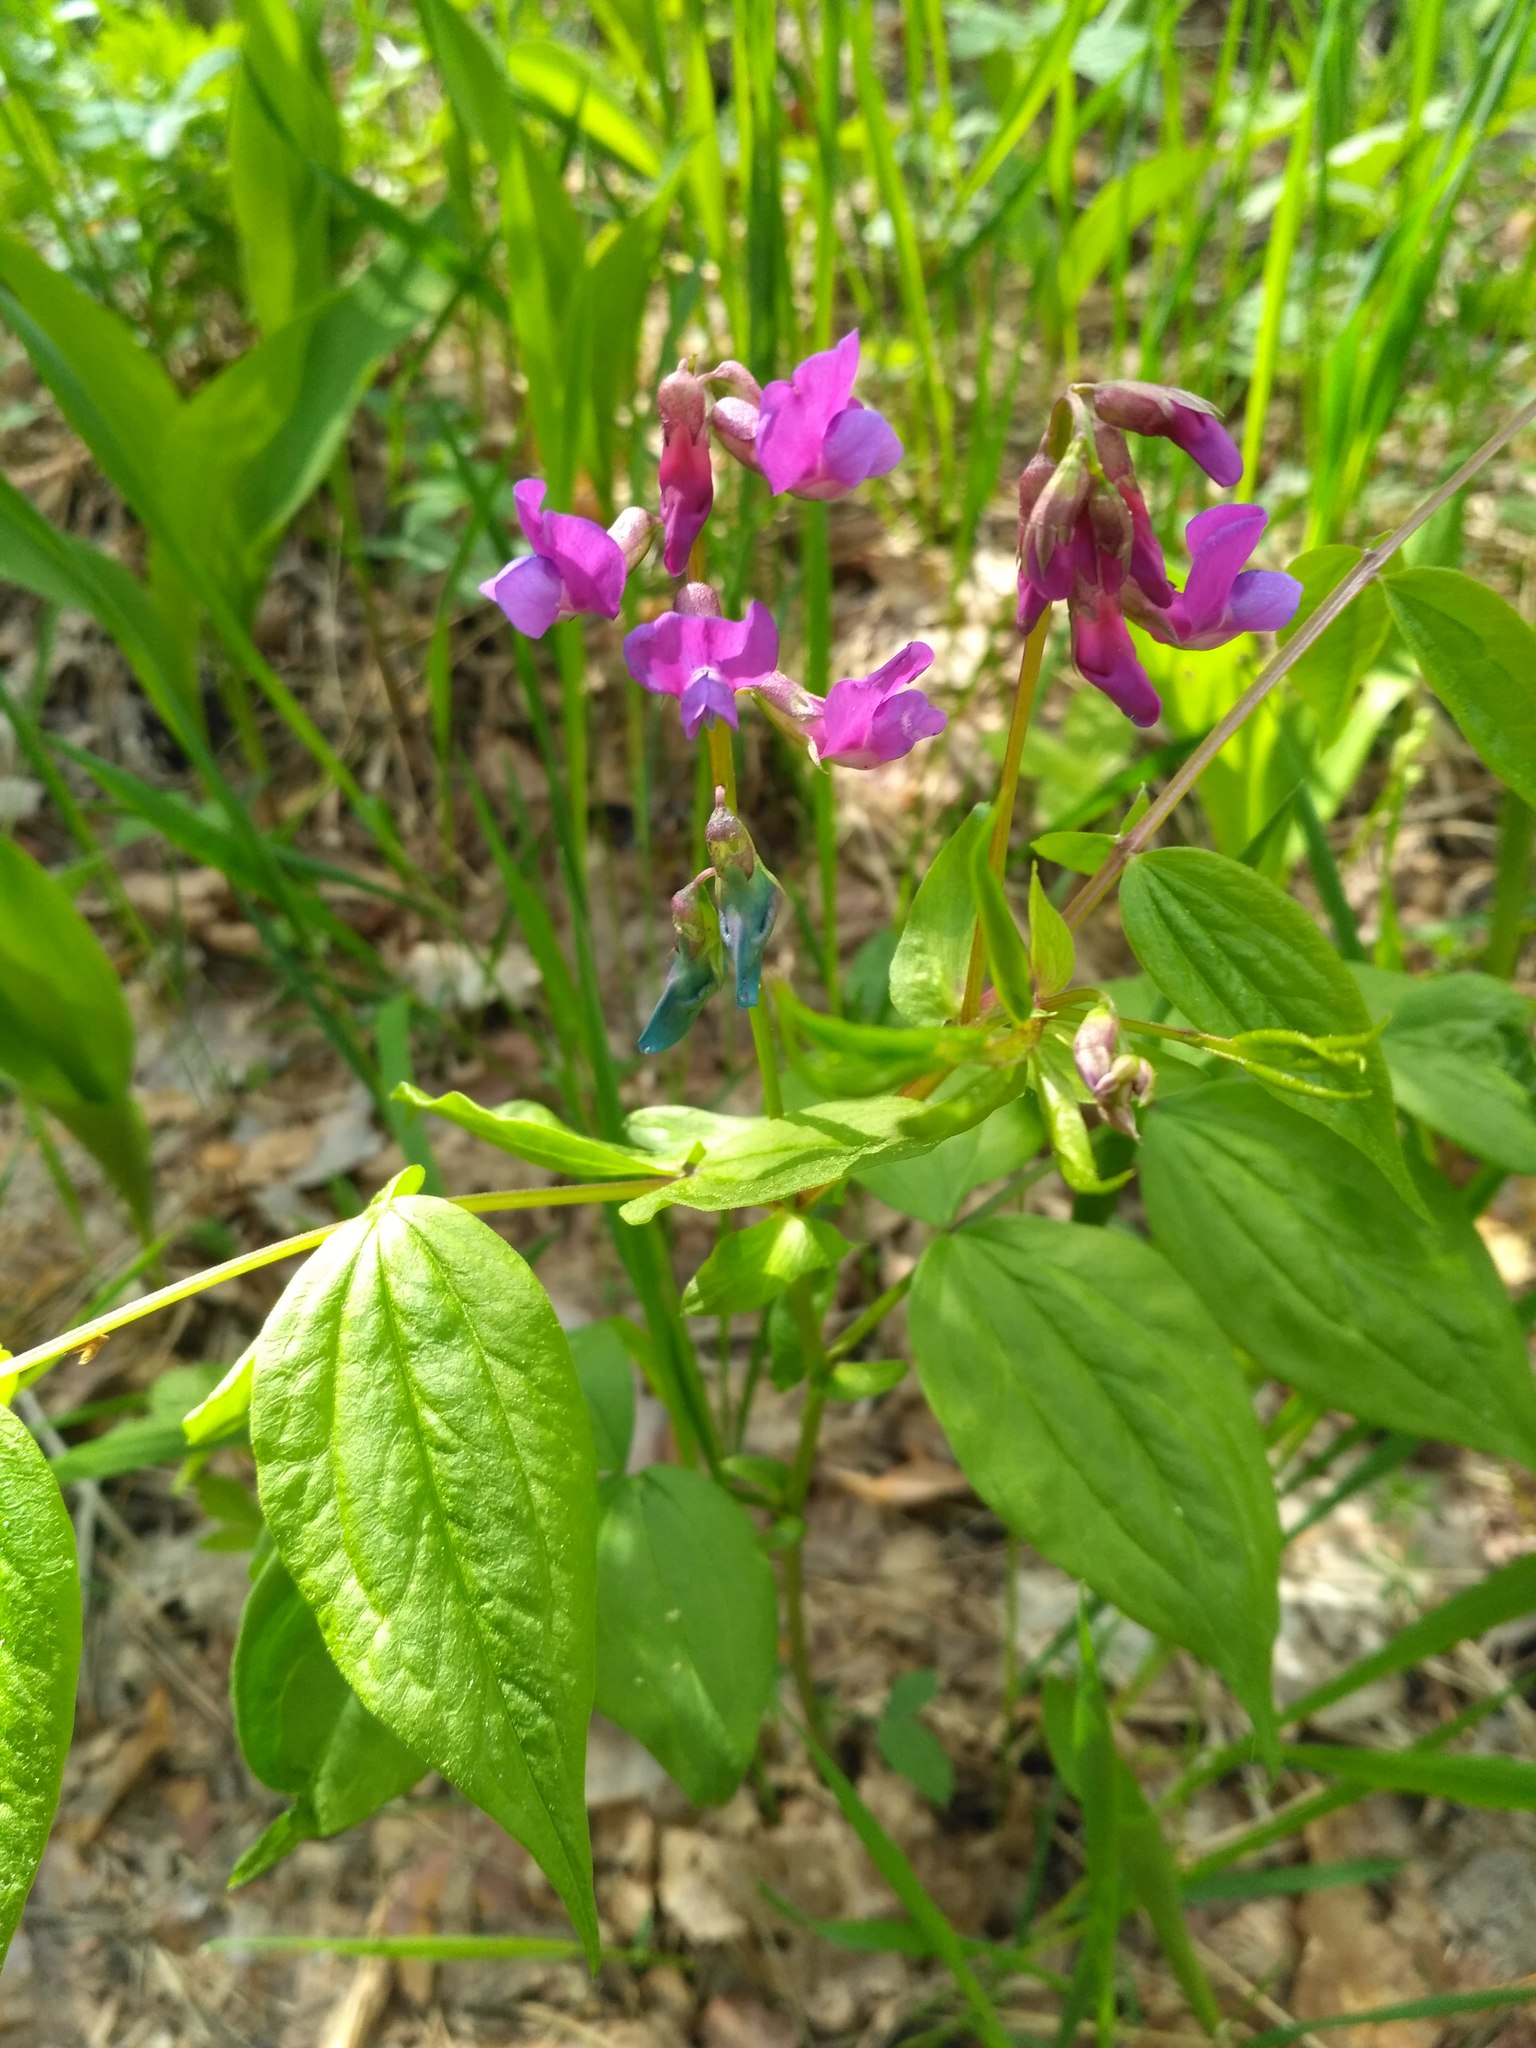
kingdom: Plantae
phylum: Tracheophyta
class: Magnoliopsida
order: Fabales
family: Fabaceae
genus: Lathyrus
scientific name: Lathyrus vernus
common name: Spring pea
